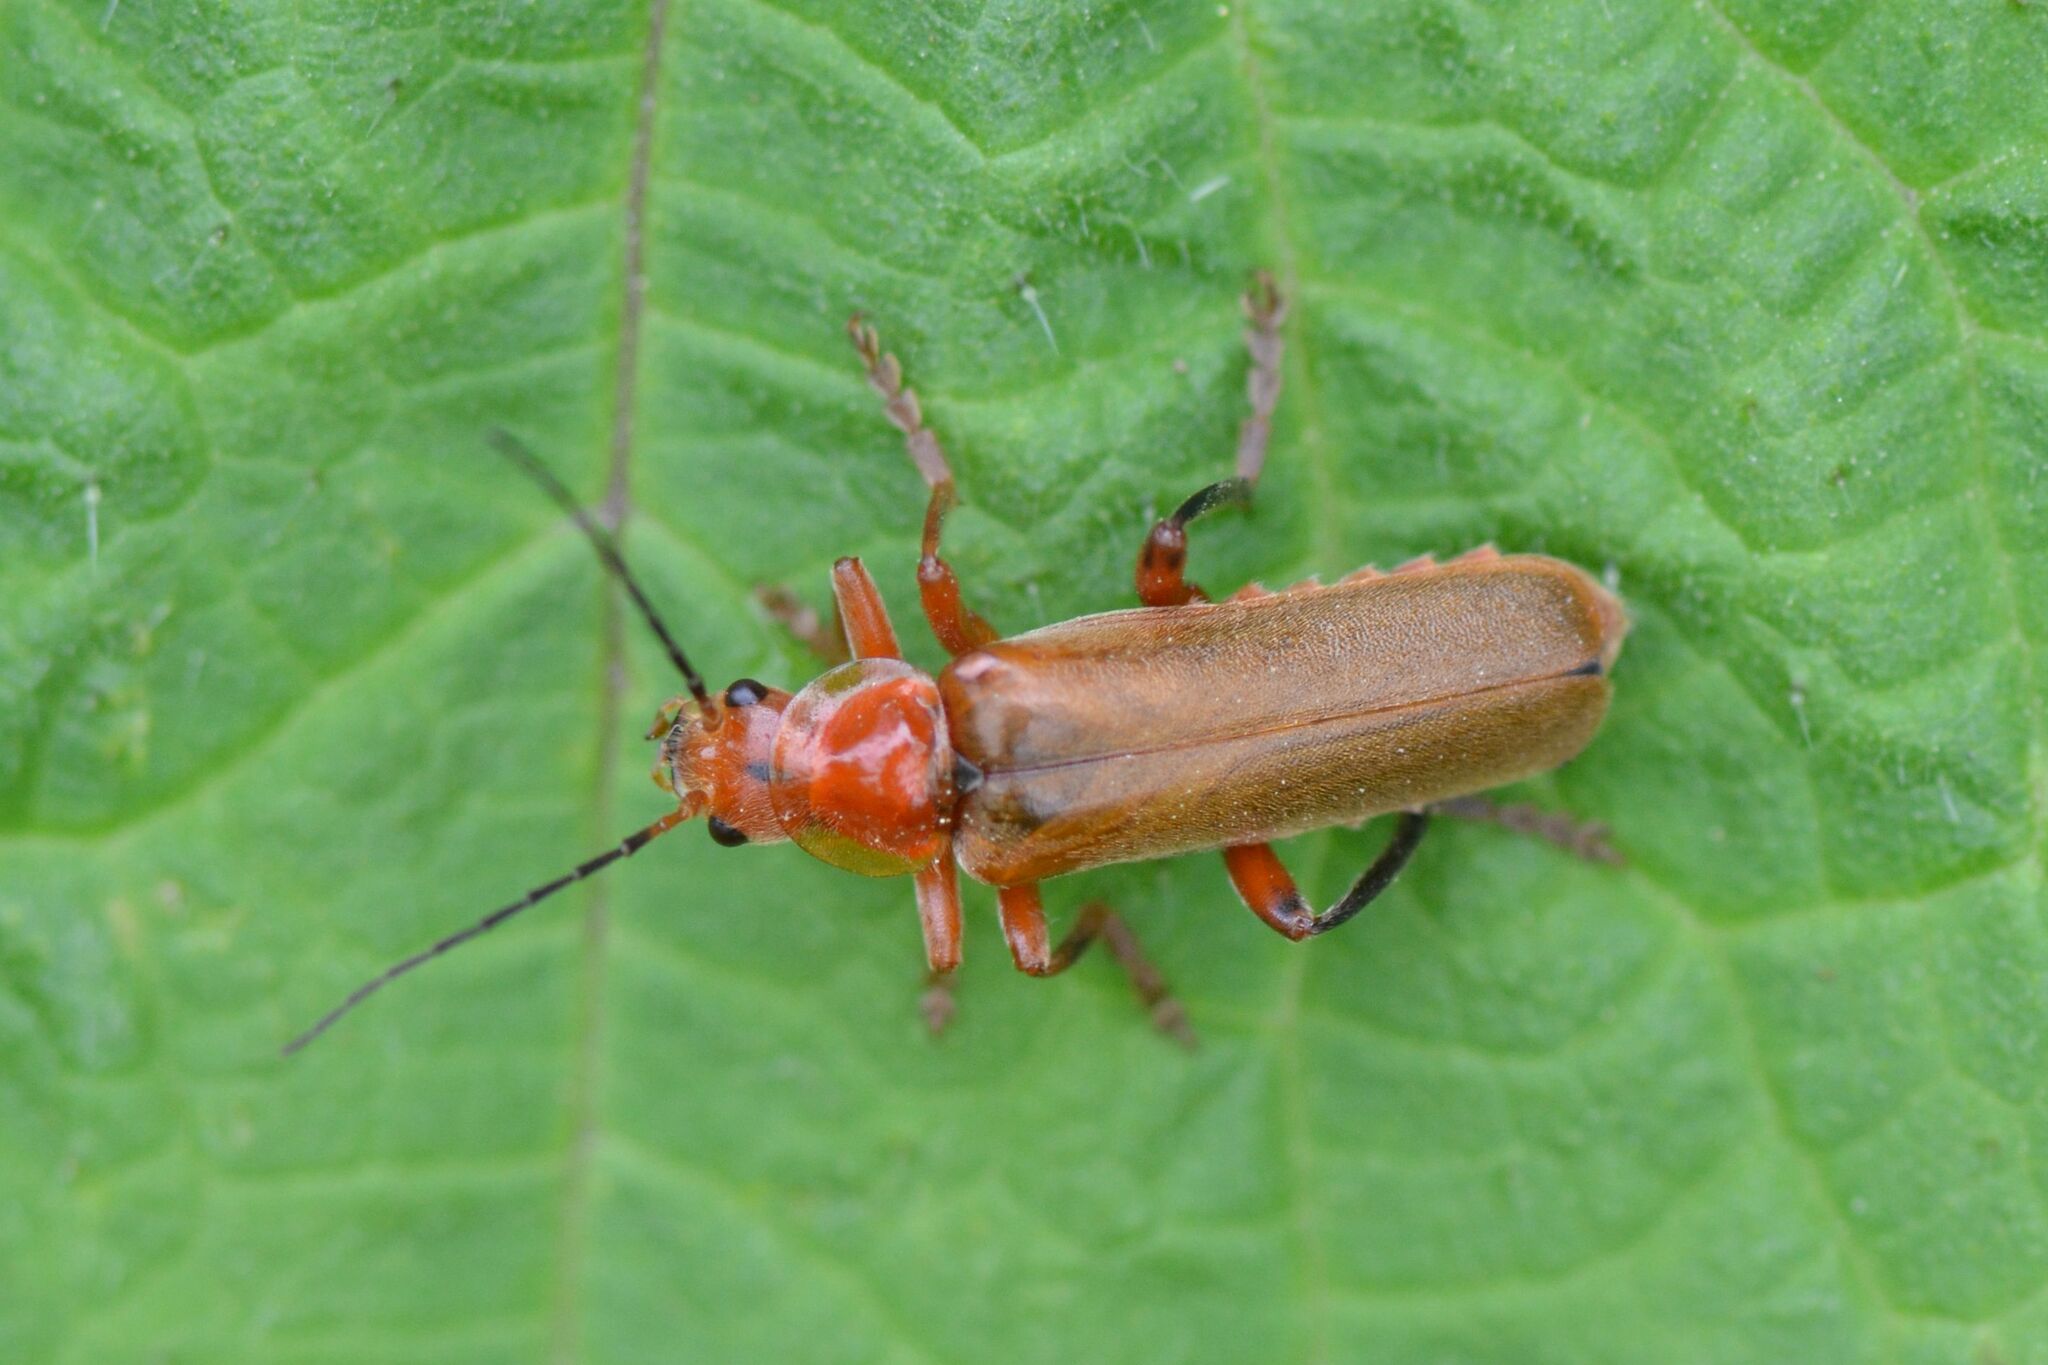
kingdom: Animalia
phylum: Arthropoda
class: Insecta
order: Coleoptera
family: Cantharidae
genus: Cantharis
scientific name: Cantharis livida
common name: Livid soldier beetle
